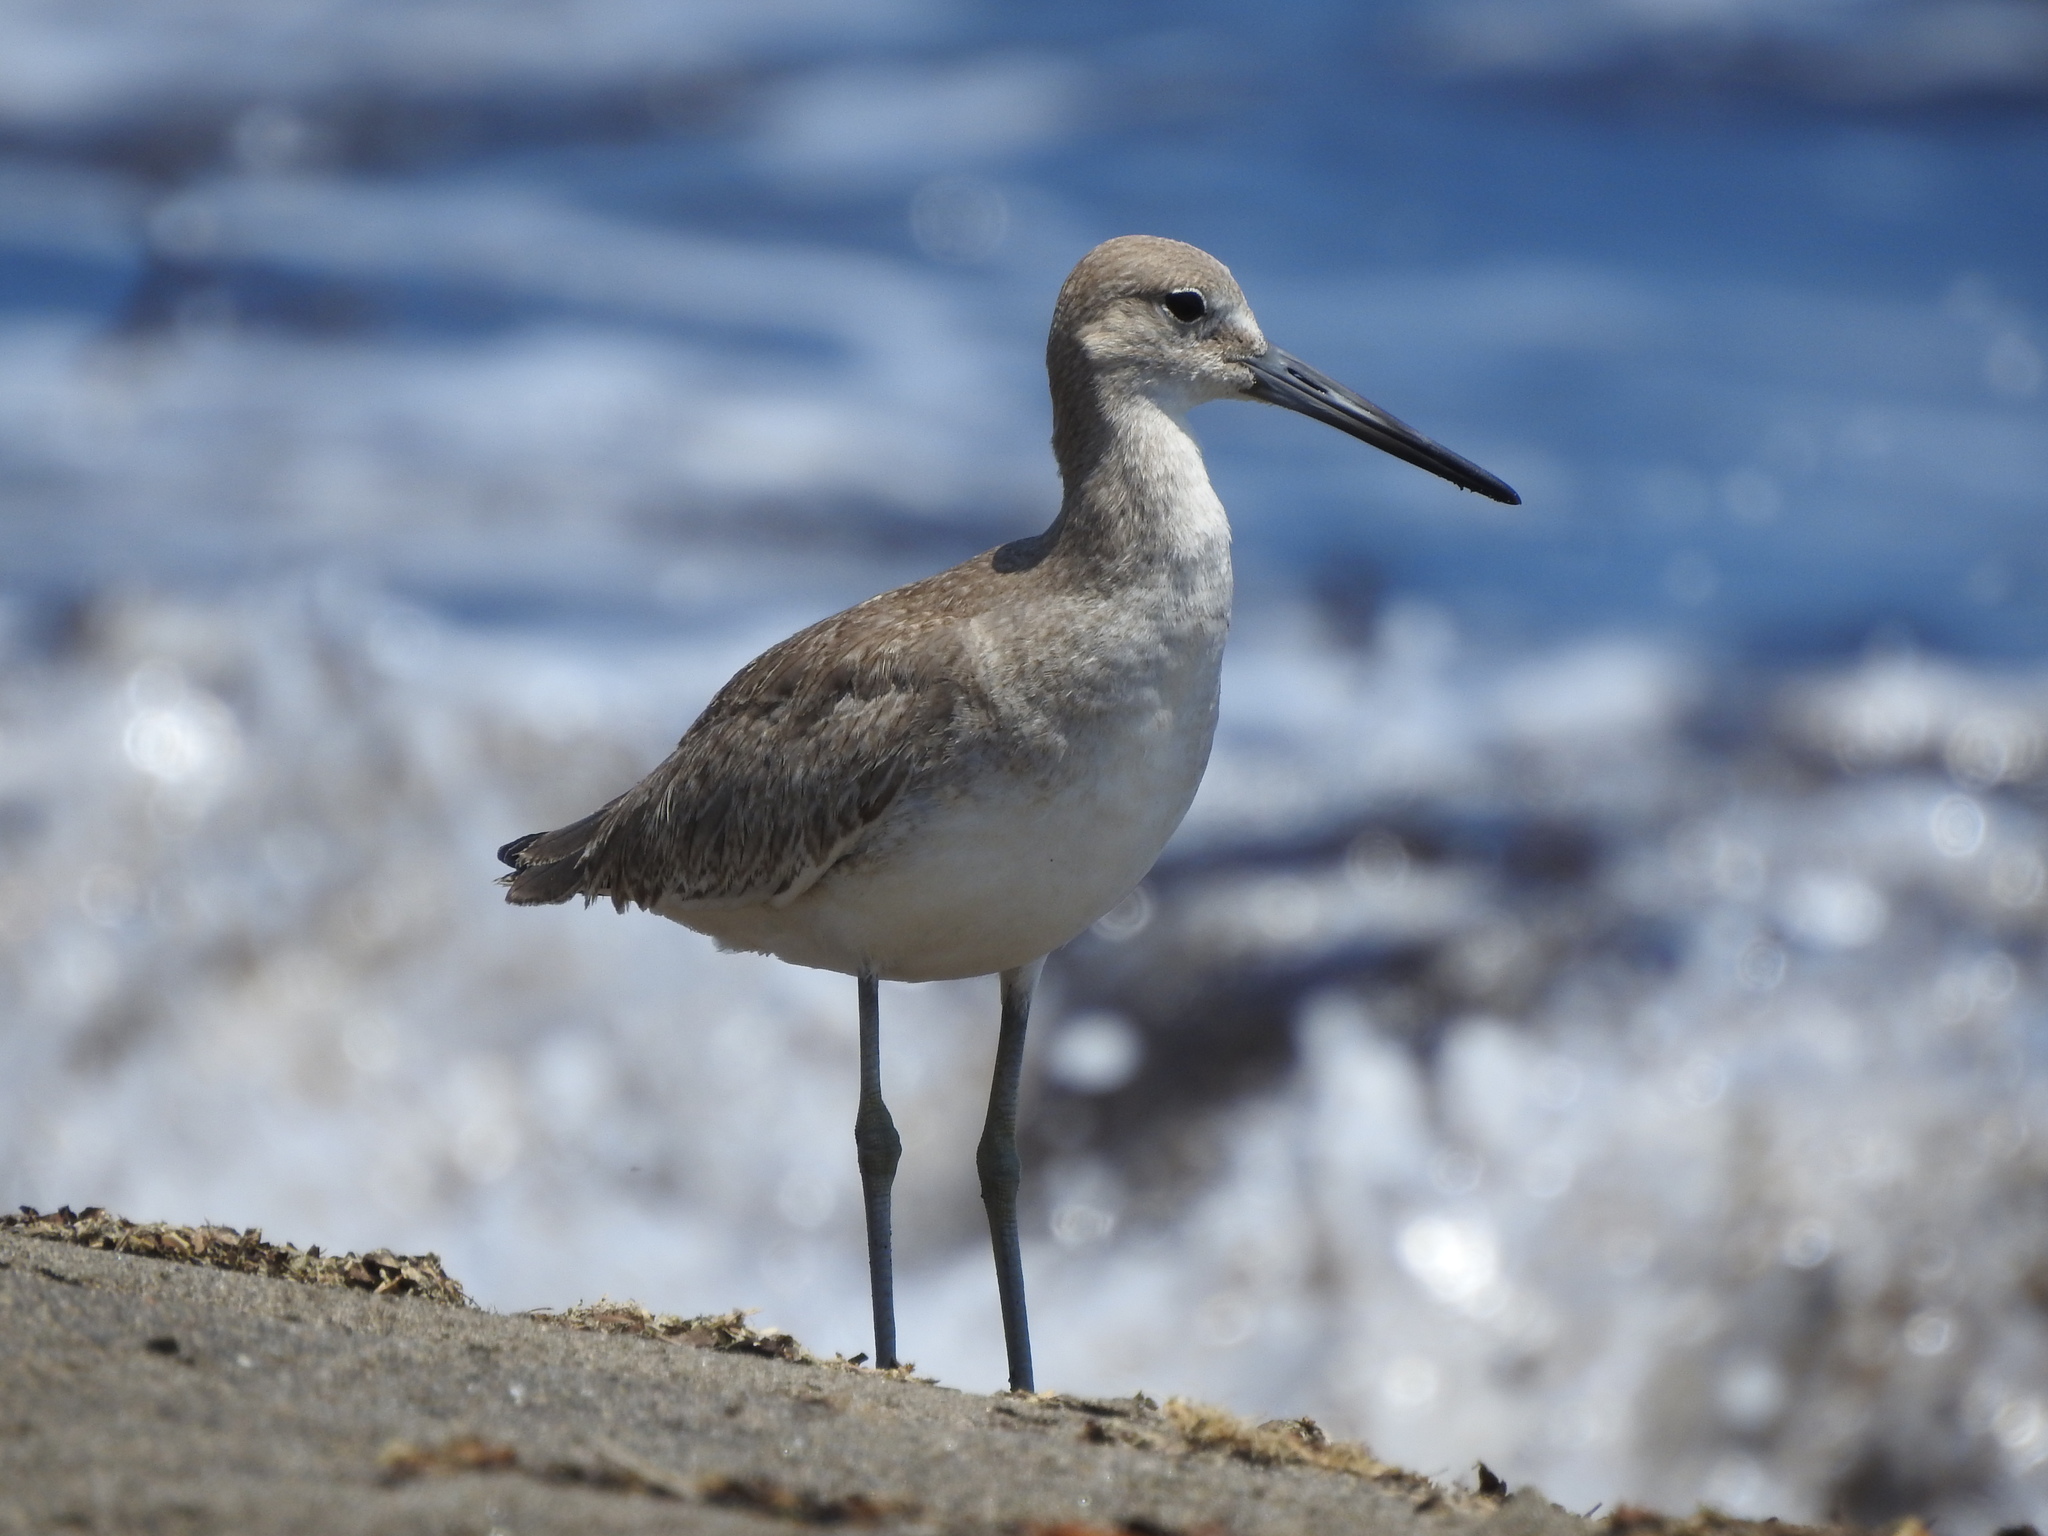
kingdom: Animalia
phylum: Chordata
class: Aves
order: Charadriiformes
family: Scolopacidae
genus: Tringa
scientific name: Tringa semipalmata
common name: Willet
